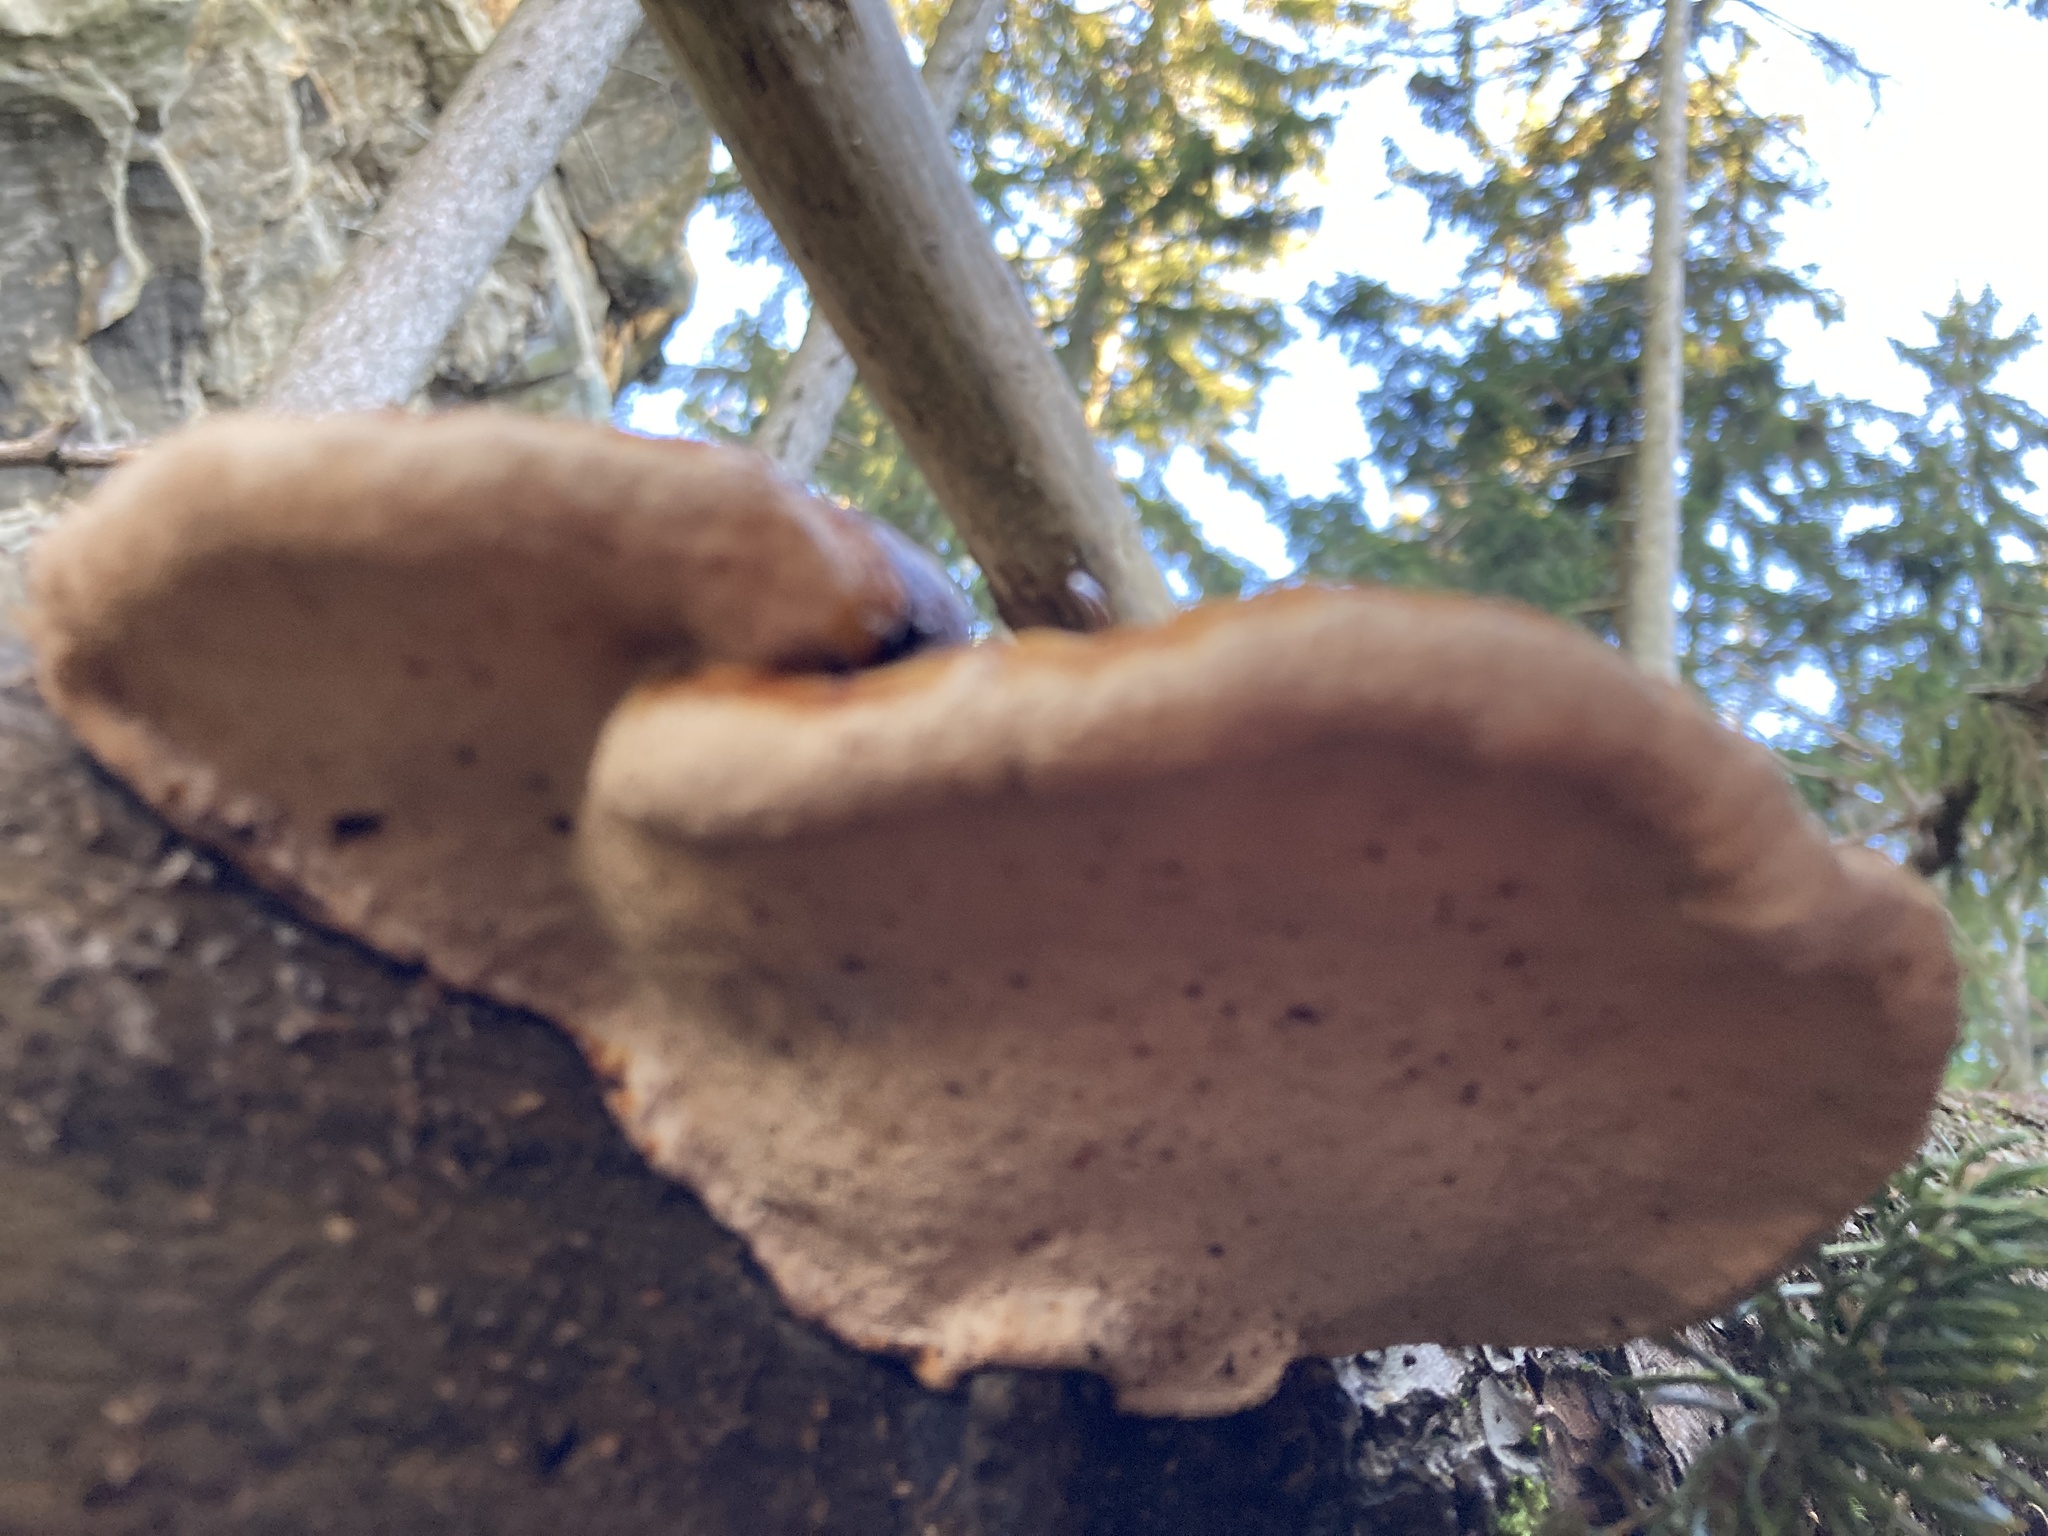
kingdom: Fungi
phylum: Basidiomycota
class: Agaricomycetes
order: Polyporales
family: Fomitopsidaceae
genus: Fomitopsis
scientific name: Fomitopsis pinicola
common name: Red-belted bracket
